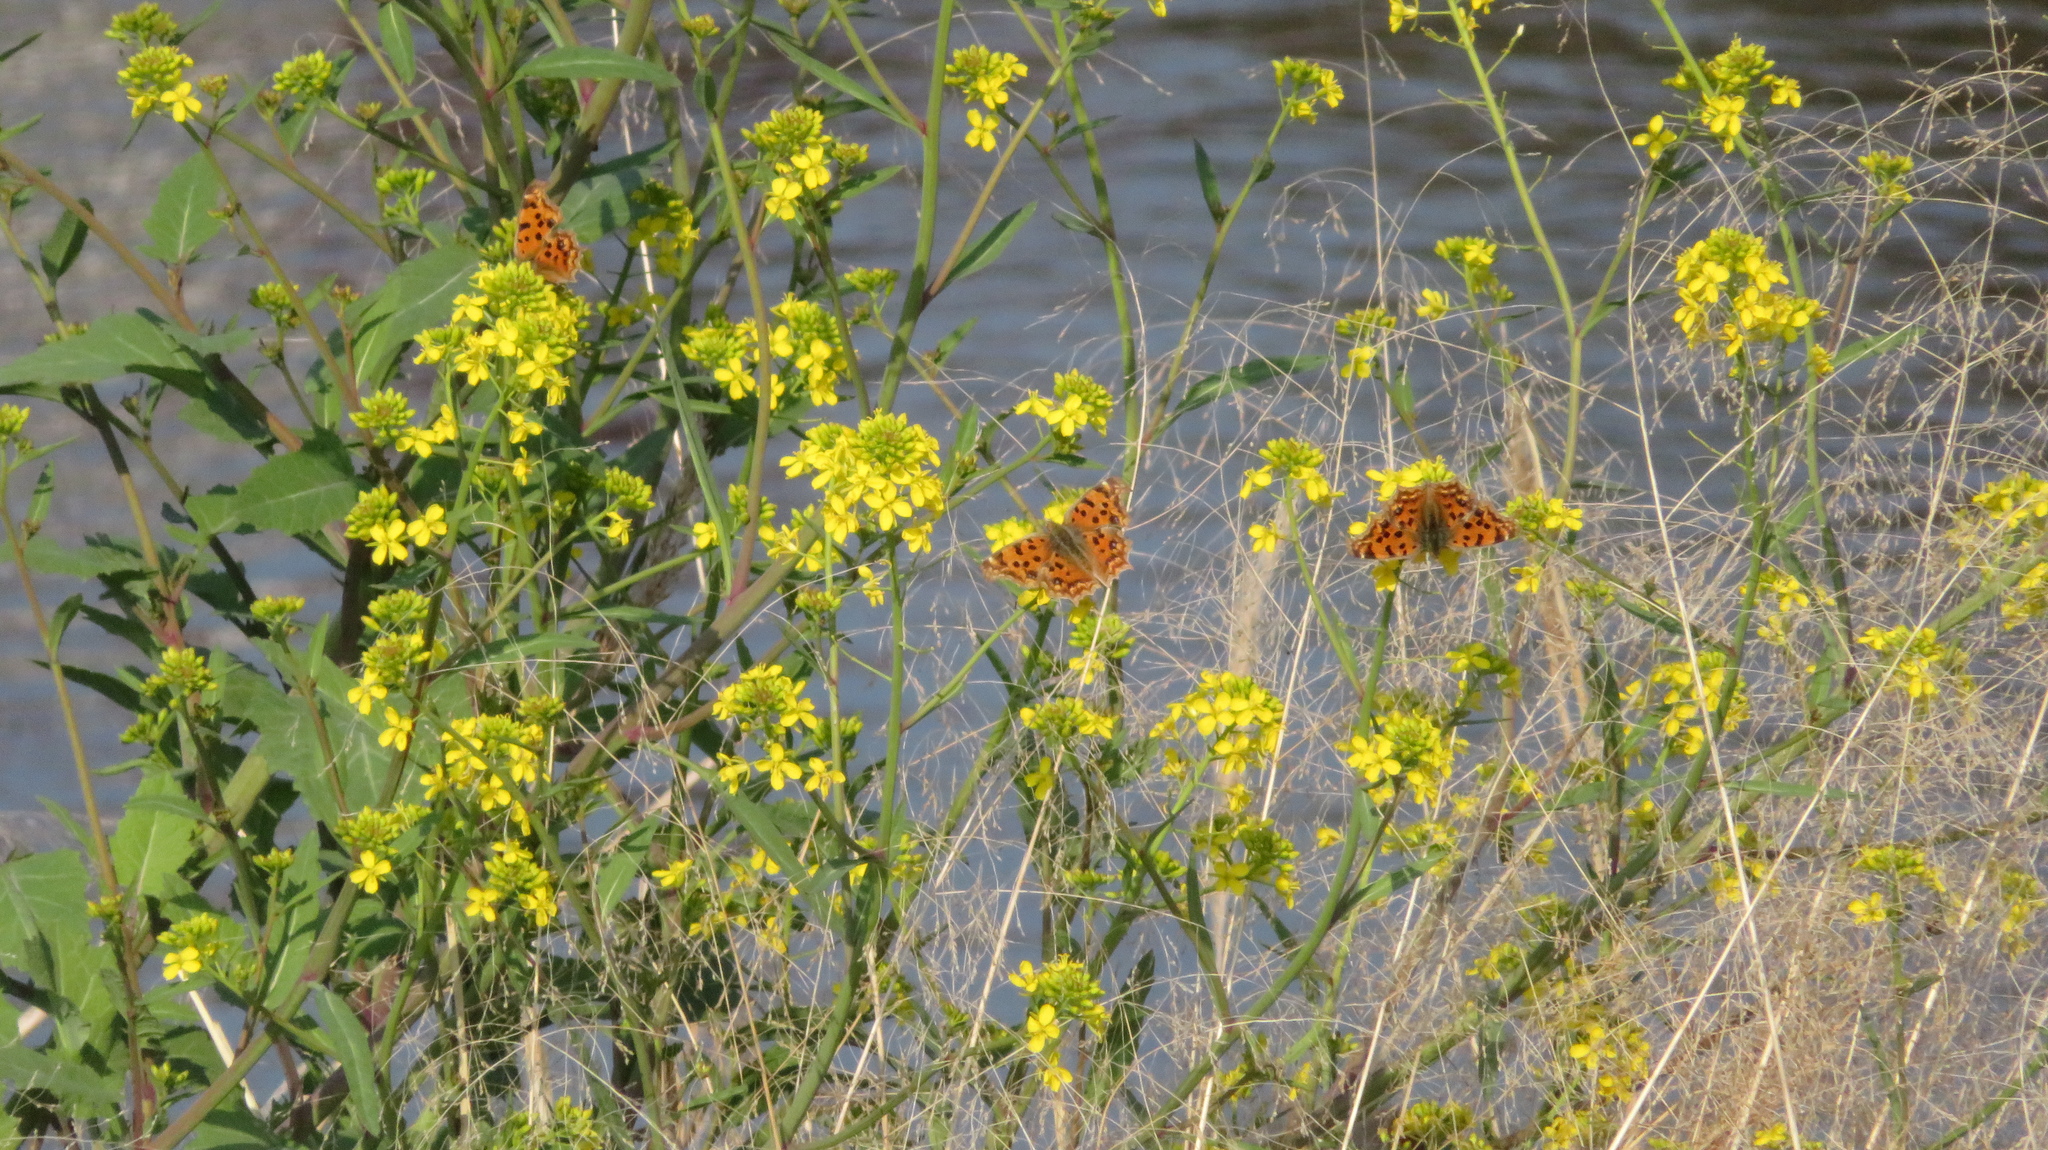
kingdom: Animalia
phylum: Arthropoda
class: Insecta
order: Lepidoptera
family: Nymphalidae
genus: Polygonia
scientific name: Polygonia c-aureum
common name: Asian comma
